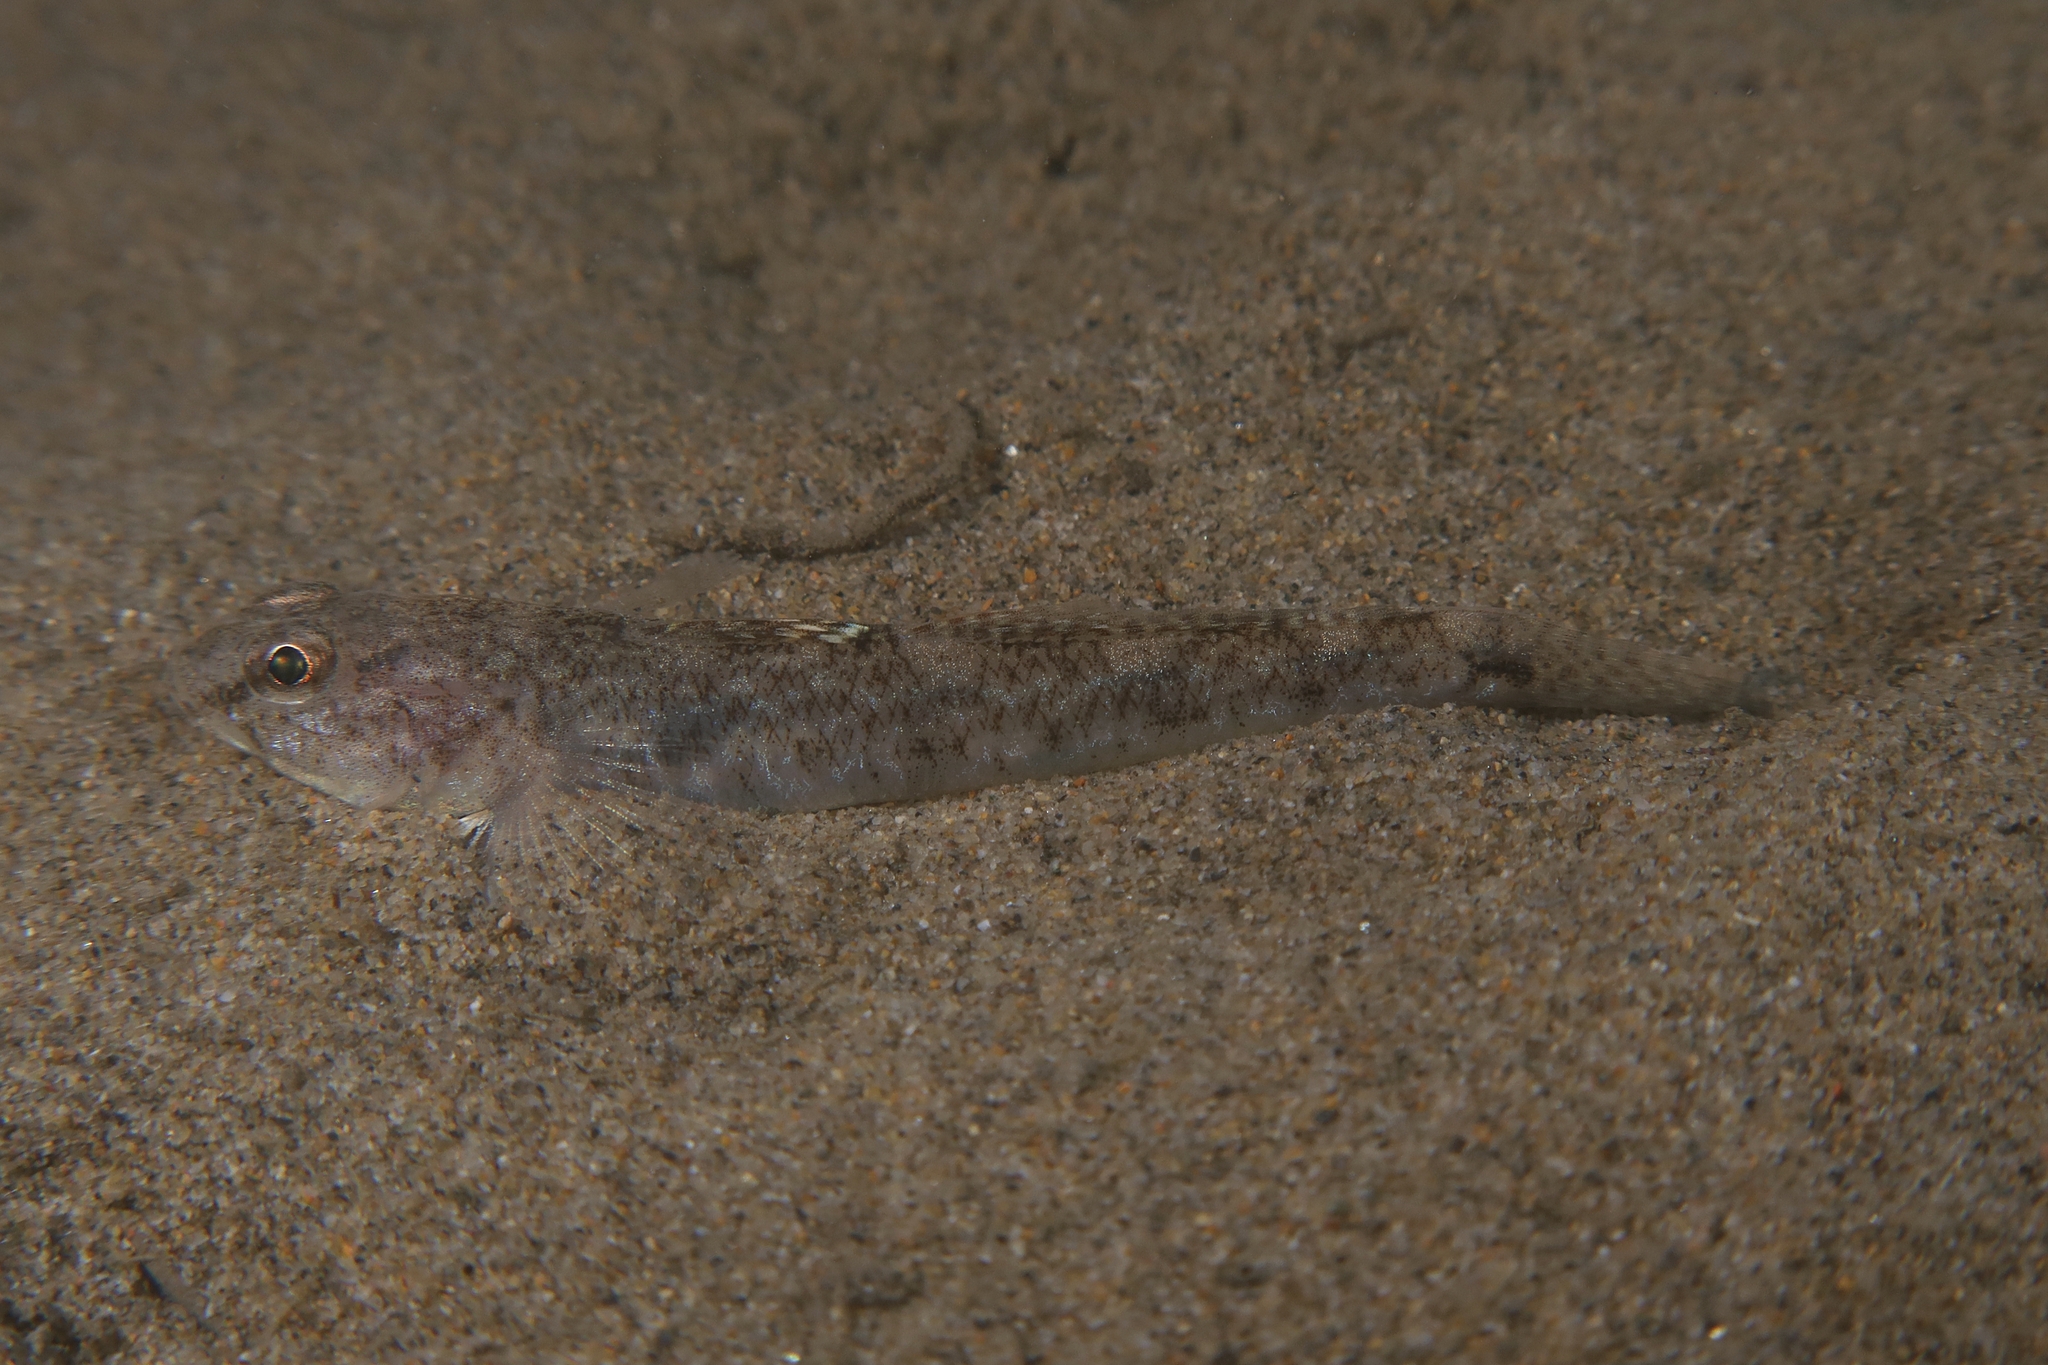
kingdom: Animalia
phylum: Chordata
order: Perciformes
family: Gobiidae
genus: Pomatoschistus
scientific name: Pomatoschistus minutus
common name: Sand goby
